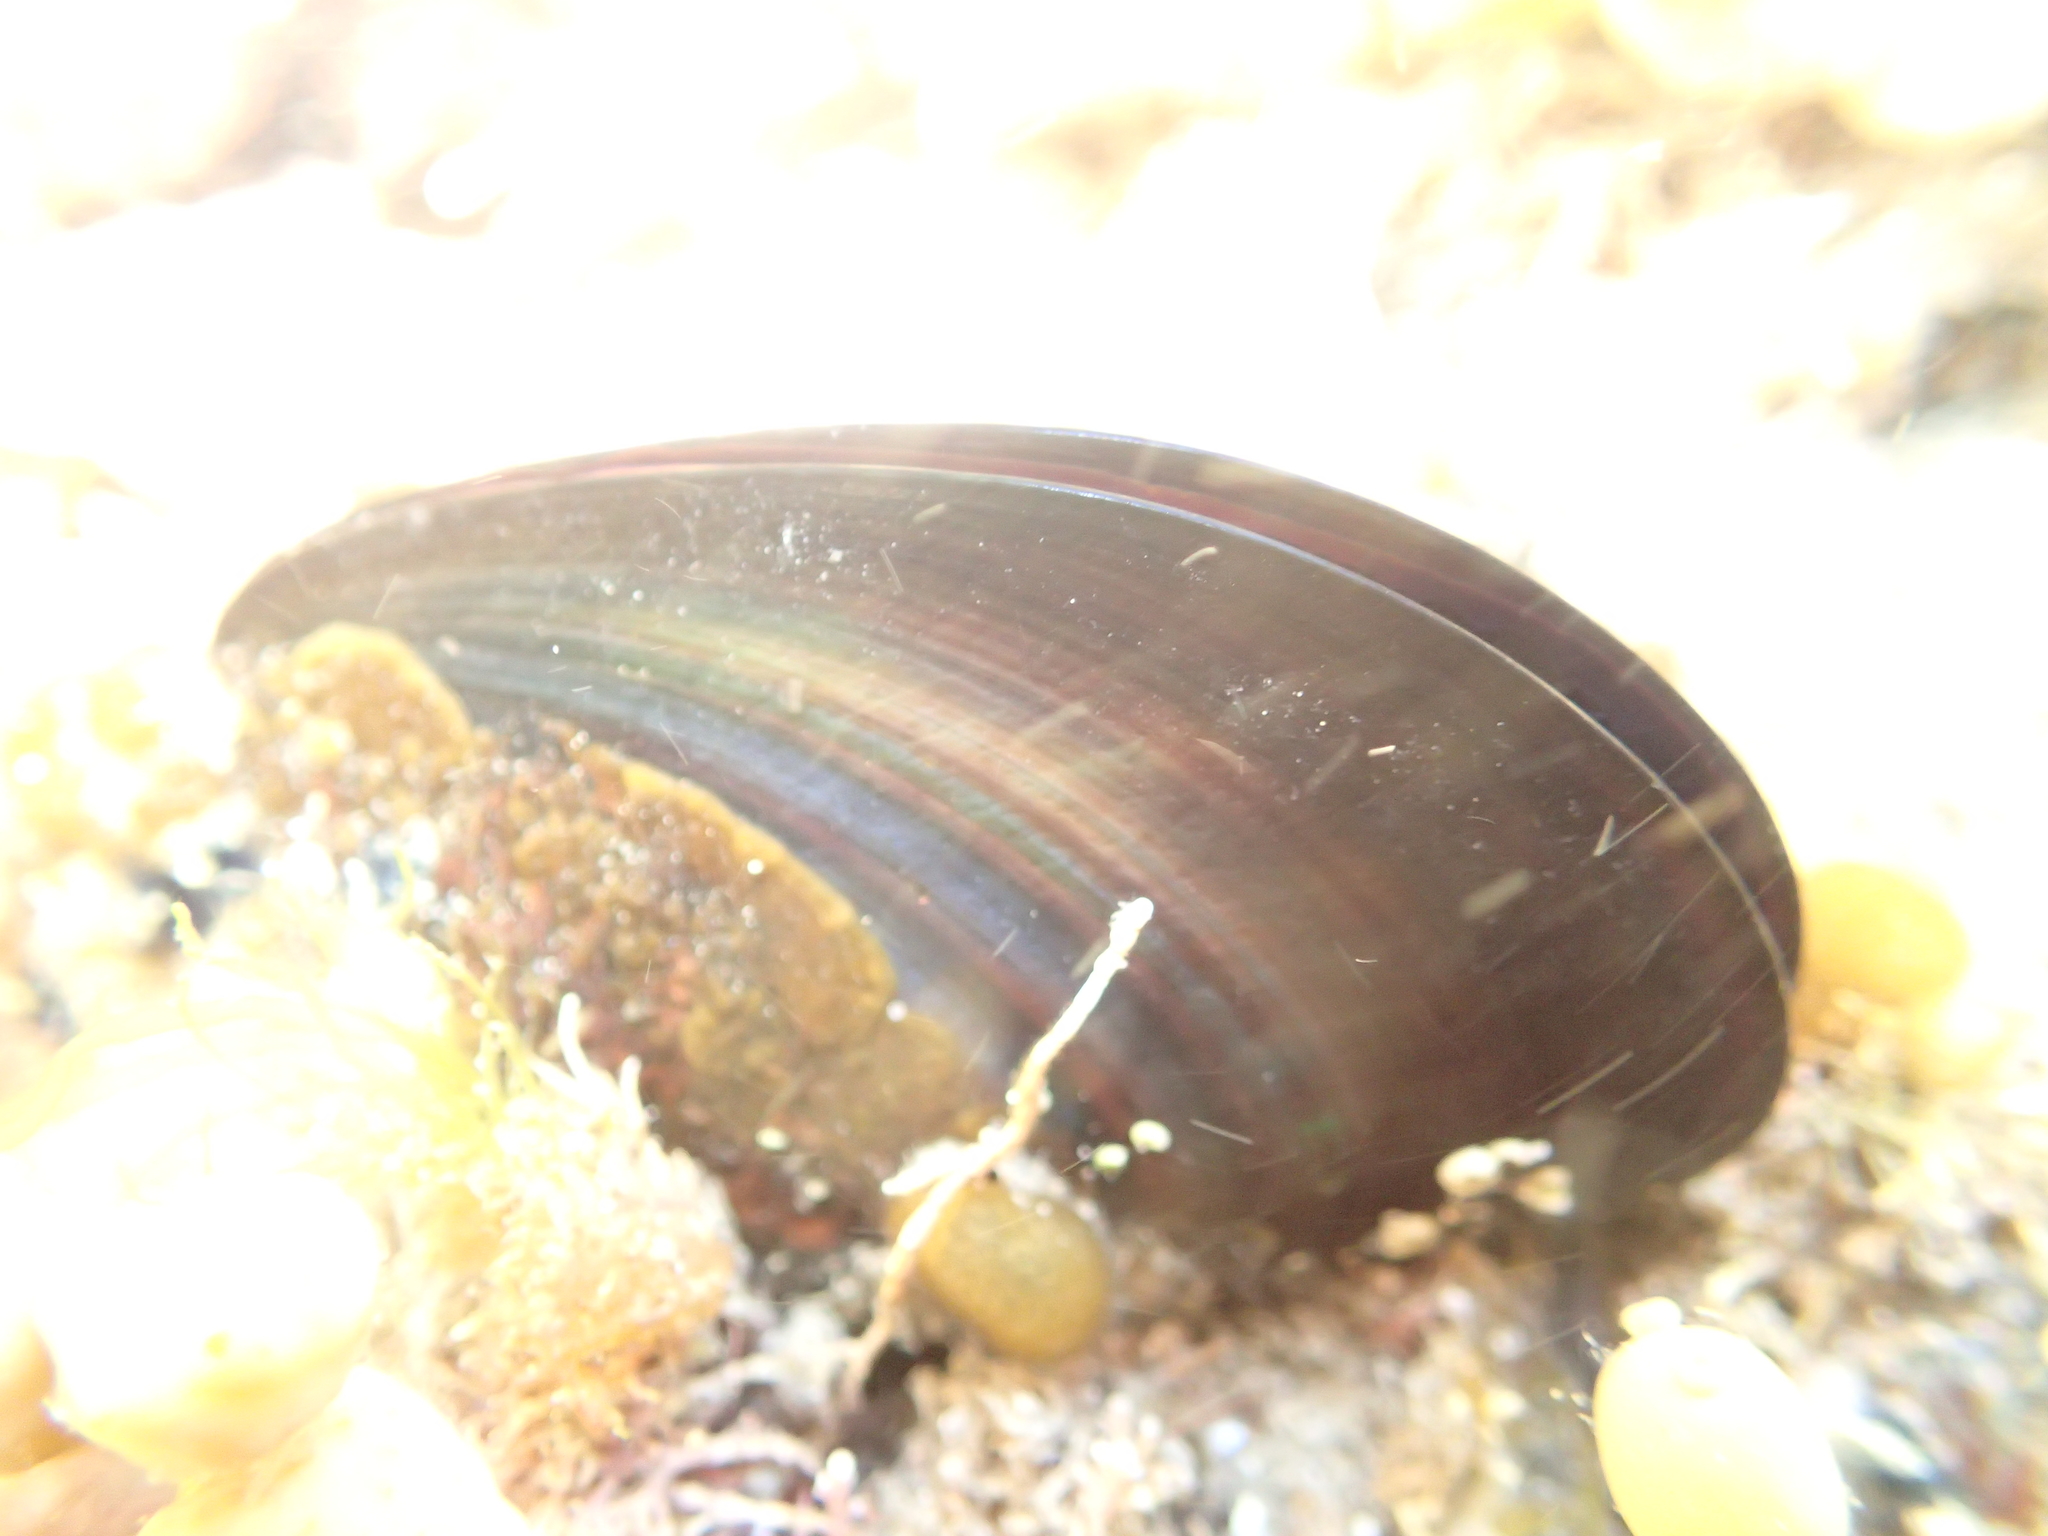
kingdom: Animalia
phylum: Mollusca
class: Bivalvia
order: Mytilida
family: Mytilidae
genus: Perna
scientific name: Perna canaliculus
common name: New zealand greenshelltm
